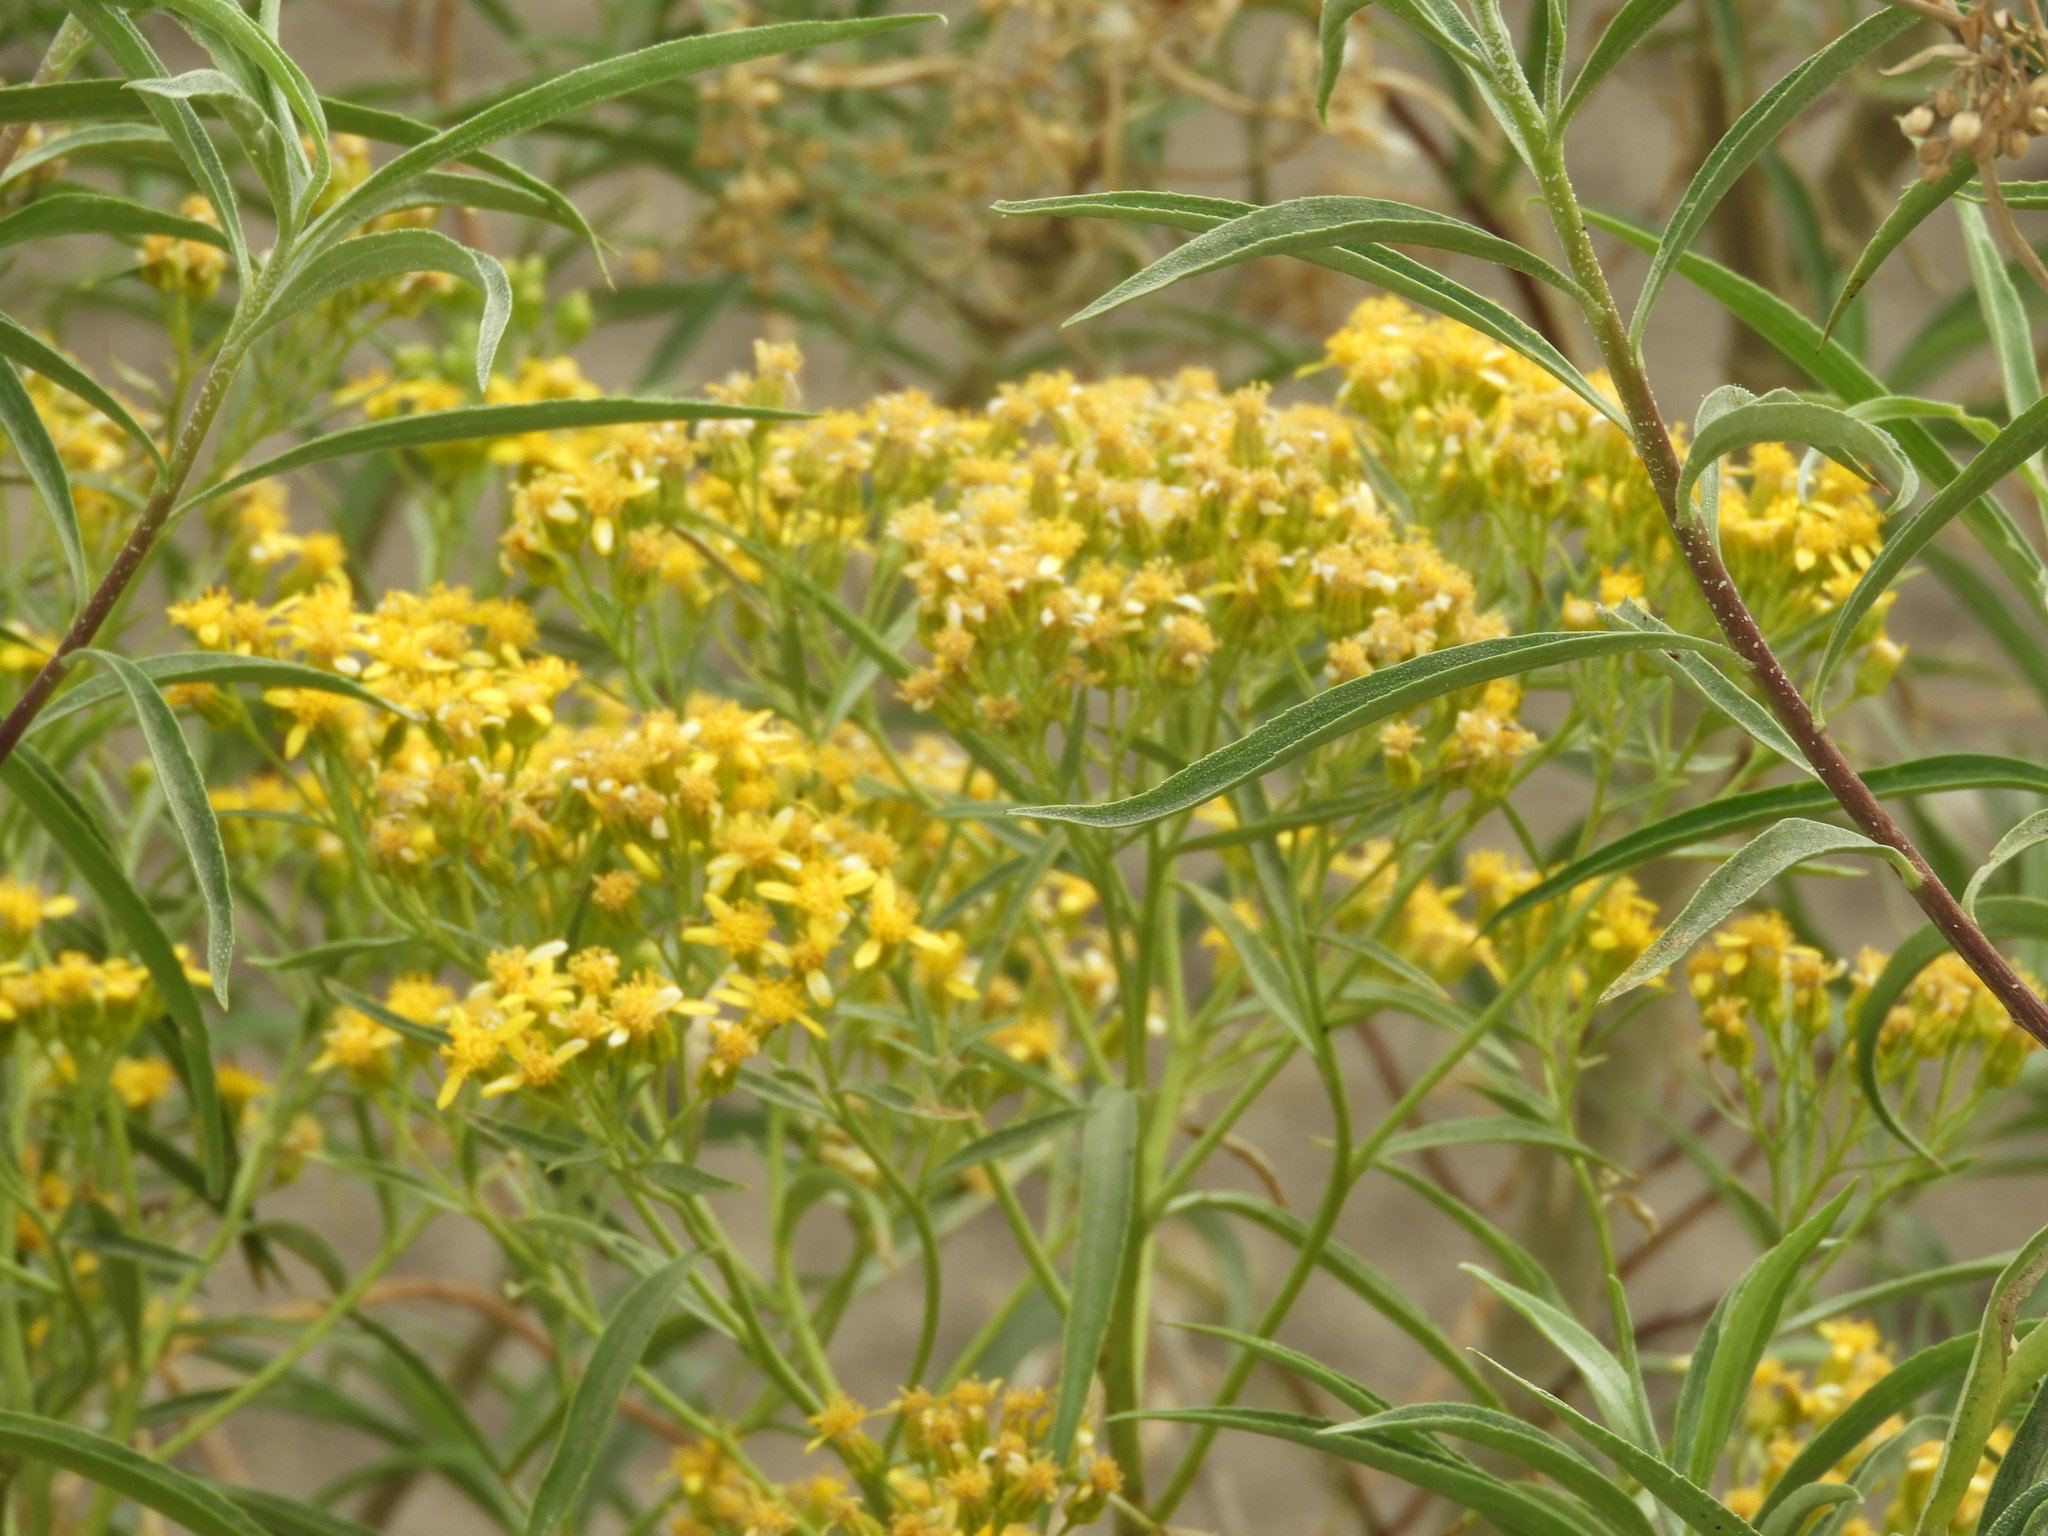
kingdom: Plantae
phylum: Tracheophyta
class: Magnoliopsida
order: Asterales
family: Asteraceae
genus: Barkleyanthus
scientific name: Barkleyanthus salicifolius
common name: Willow ragwort
